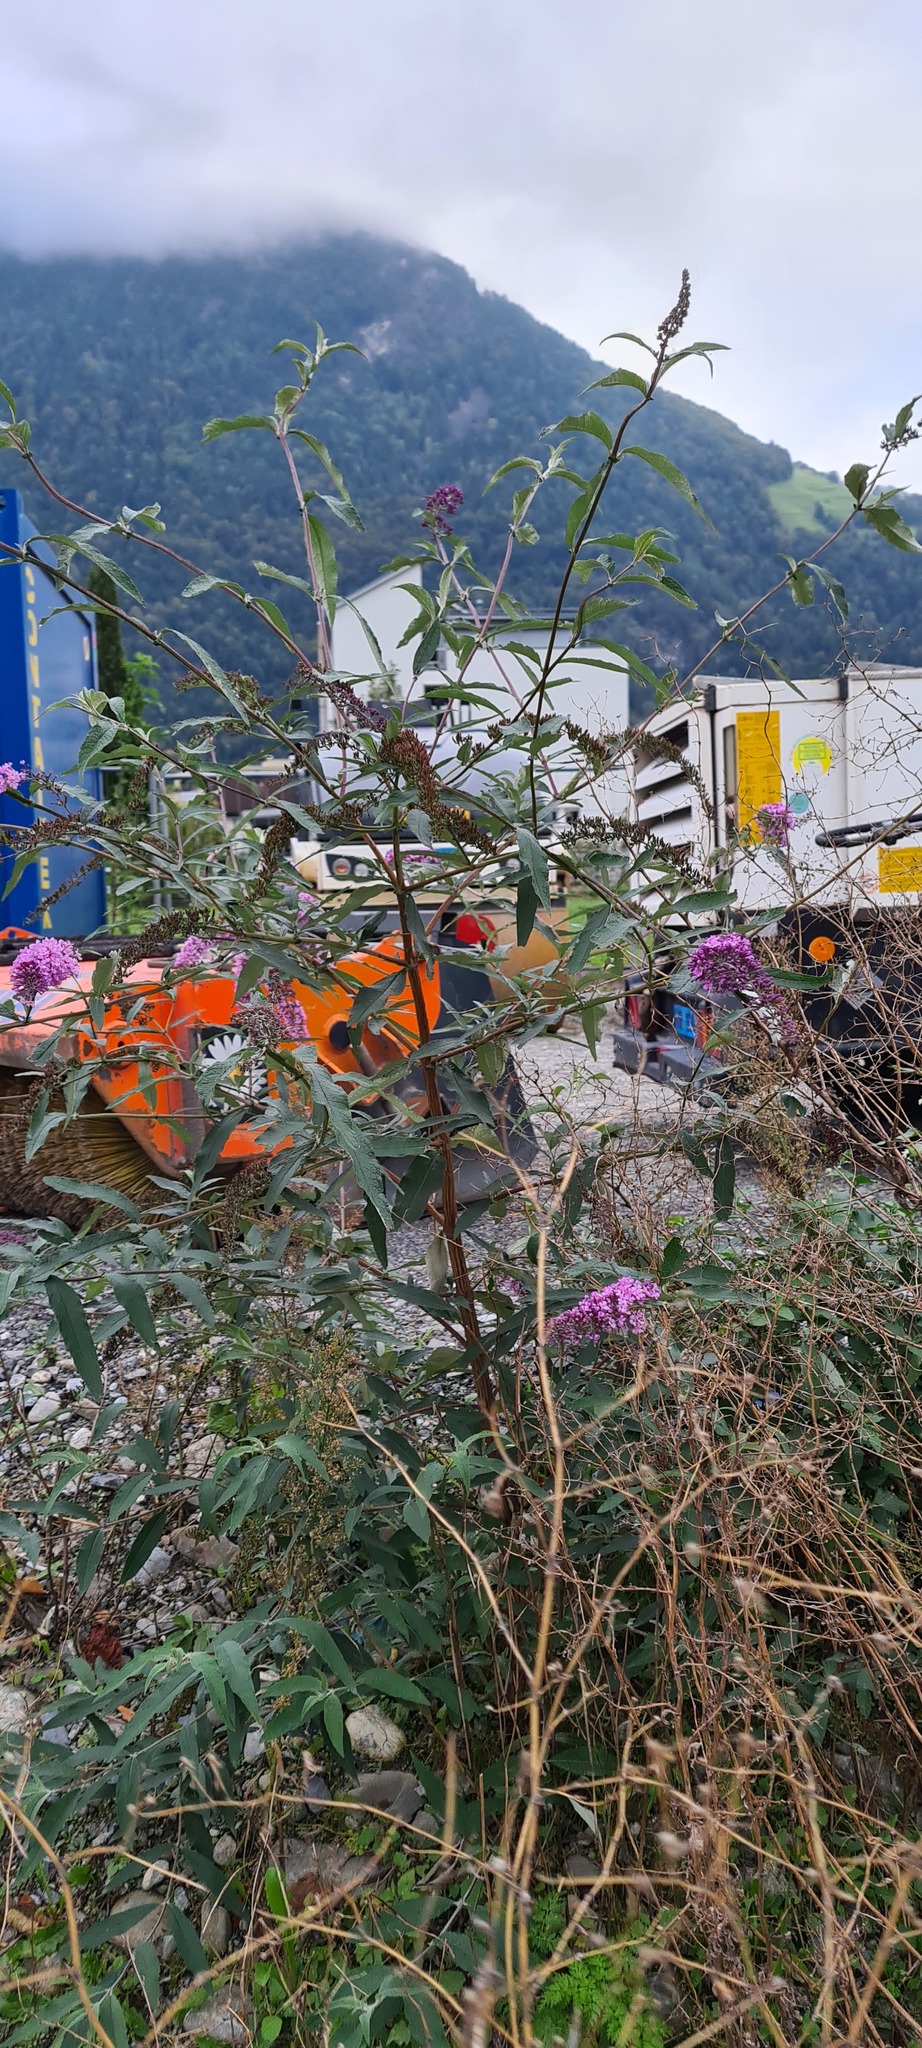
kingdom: Plantae
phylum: Tracheophyta
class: Magnoliopsida
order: Lamiales
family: Scrophulariaceae
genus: Buddleja
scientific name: Buddleja davidii
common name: Butterfly-bush
